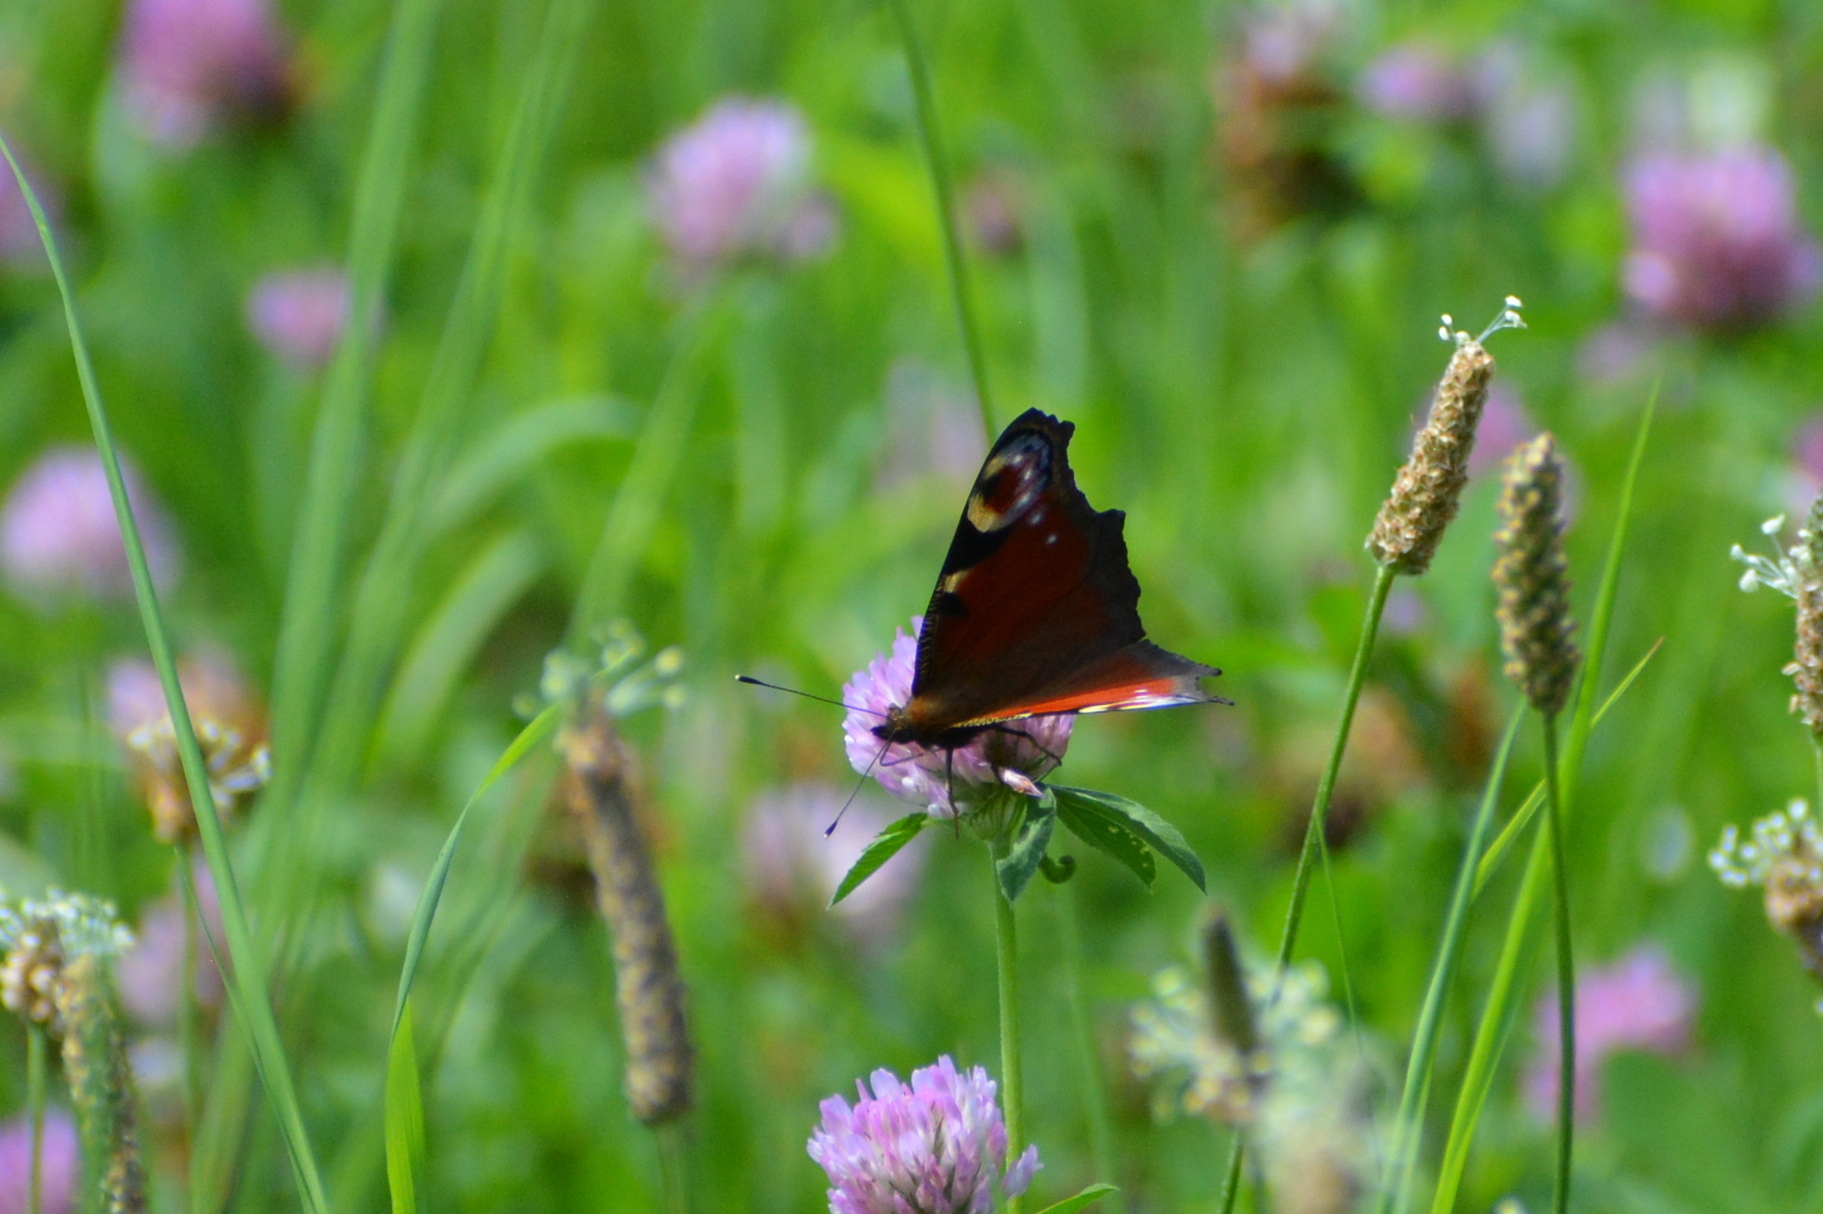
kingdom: Animalia
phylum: Arthropoda
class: Insecta
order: Lepidoptera
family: Nymphalidae
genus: Aglais
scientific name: Aglais io
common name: Peacock
